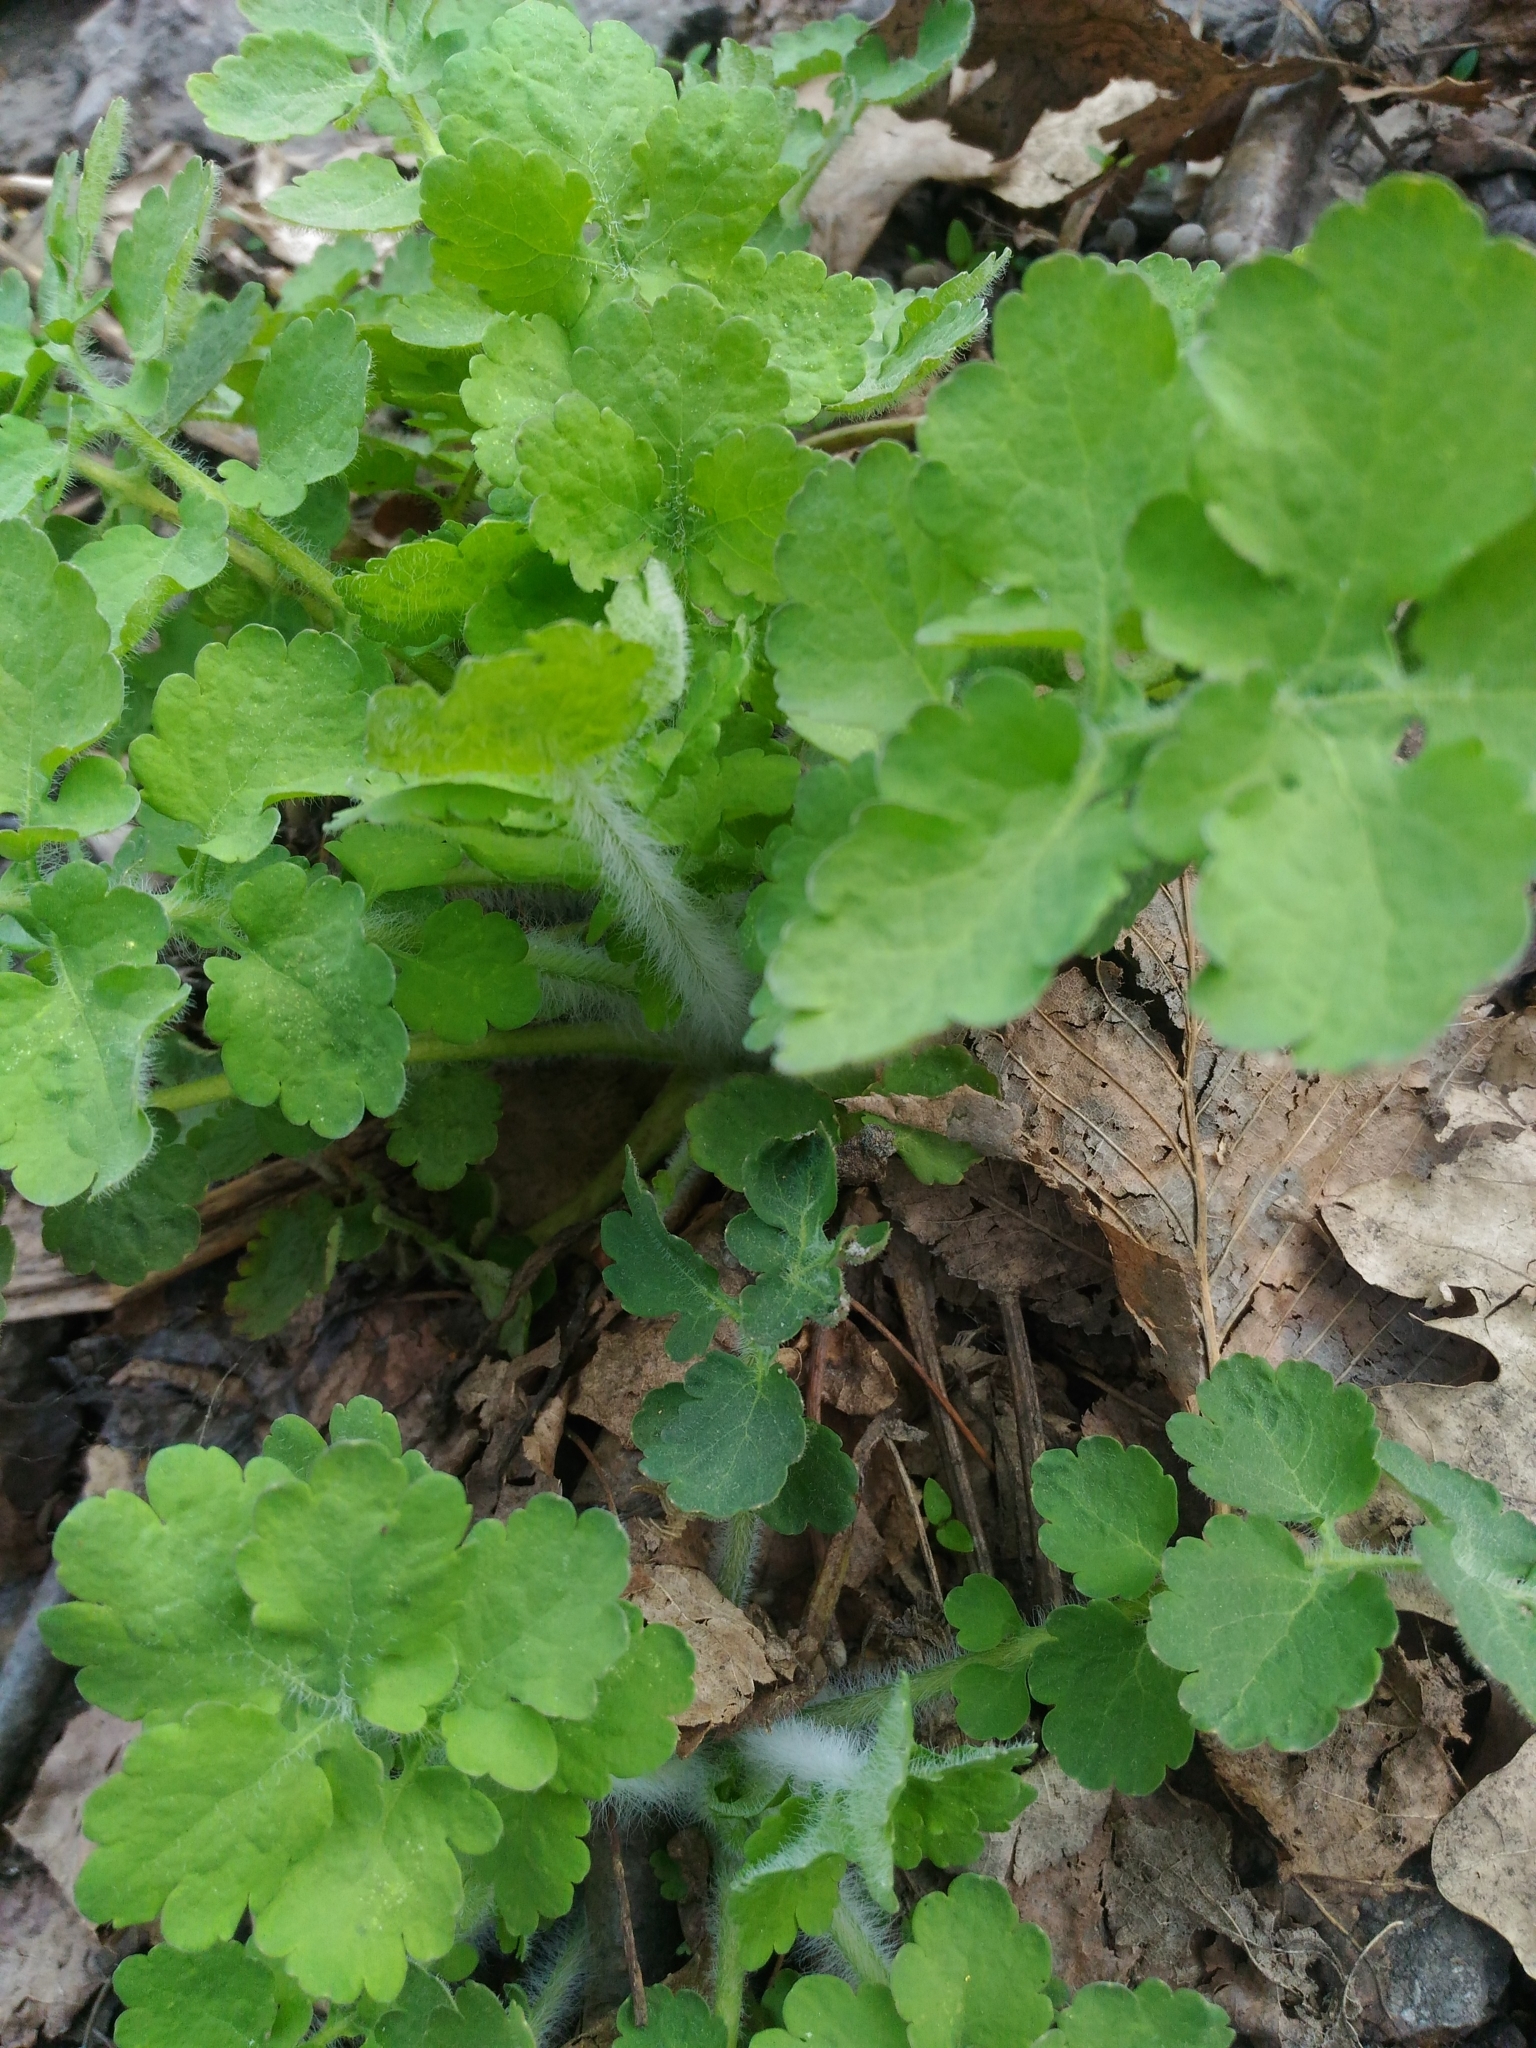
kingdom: Plantae
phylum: Tracheophyta
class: Magnoliopsida
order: Ranunculales
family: Papaveraceae
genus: Chelidonium
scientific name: Chelidonium majus
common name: Greater celandine
